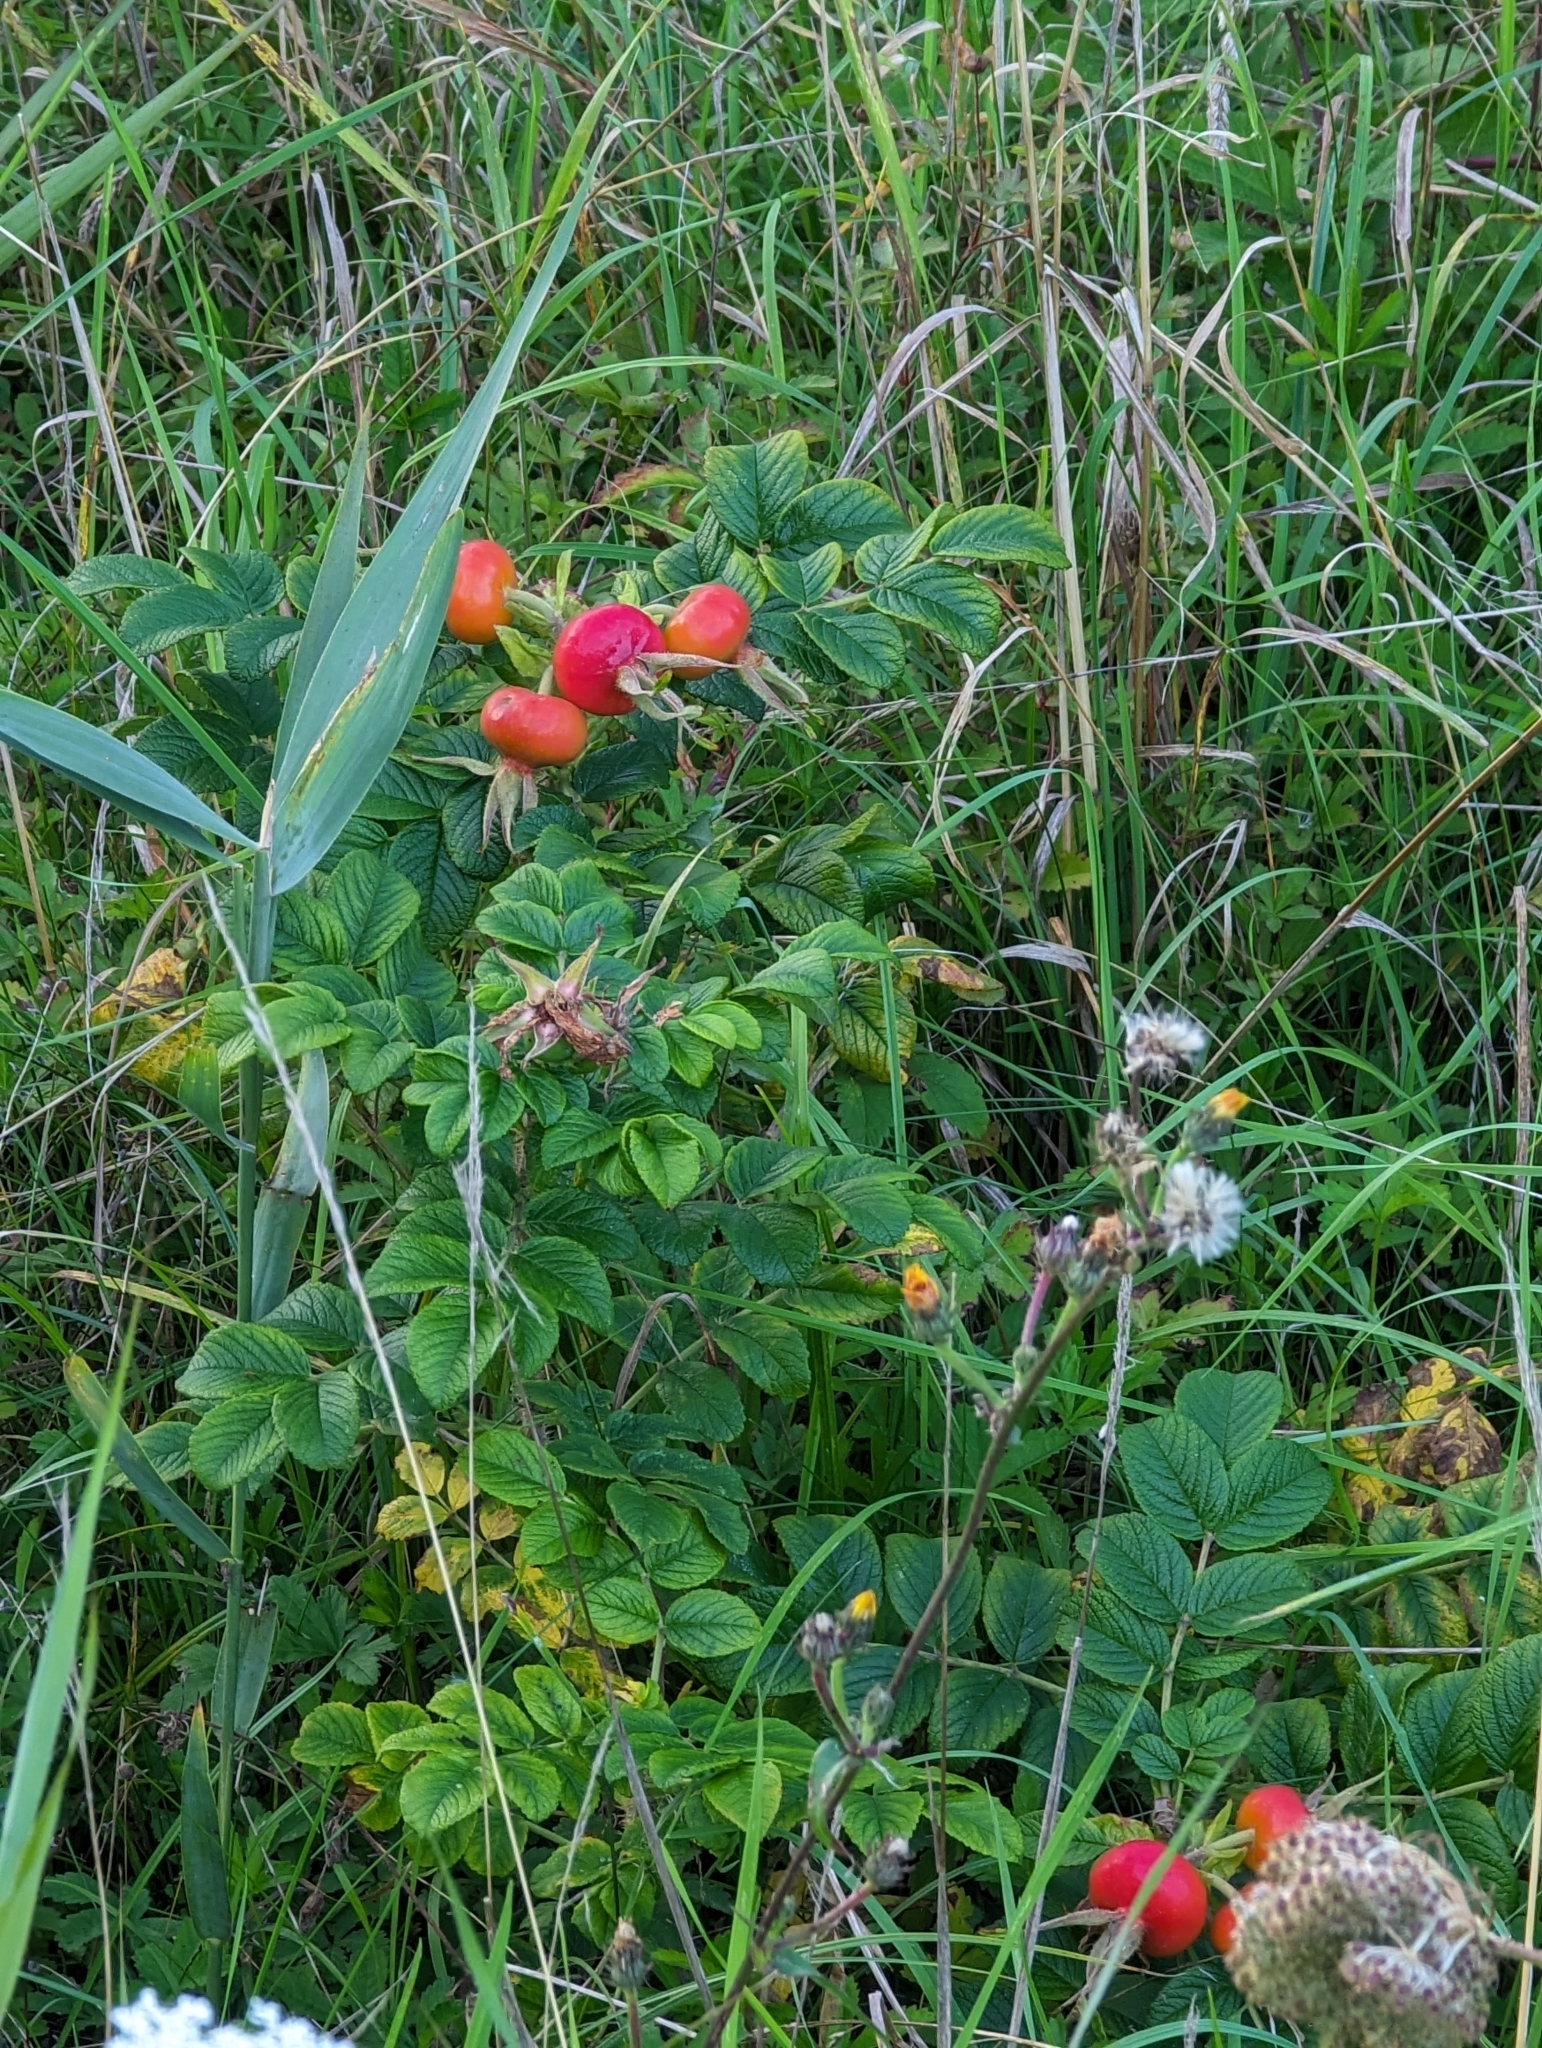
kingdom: Plantae
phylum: Tracheophyta
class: Magnoliopsida
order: Rosales
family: Rosaceae
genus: Rosa
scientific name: Rosa rugosa
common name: Japanese rose
